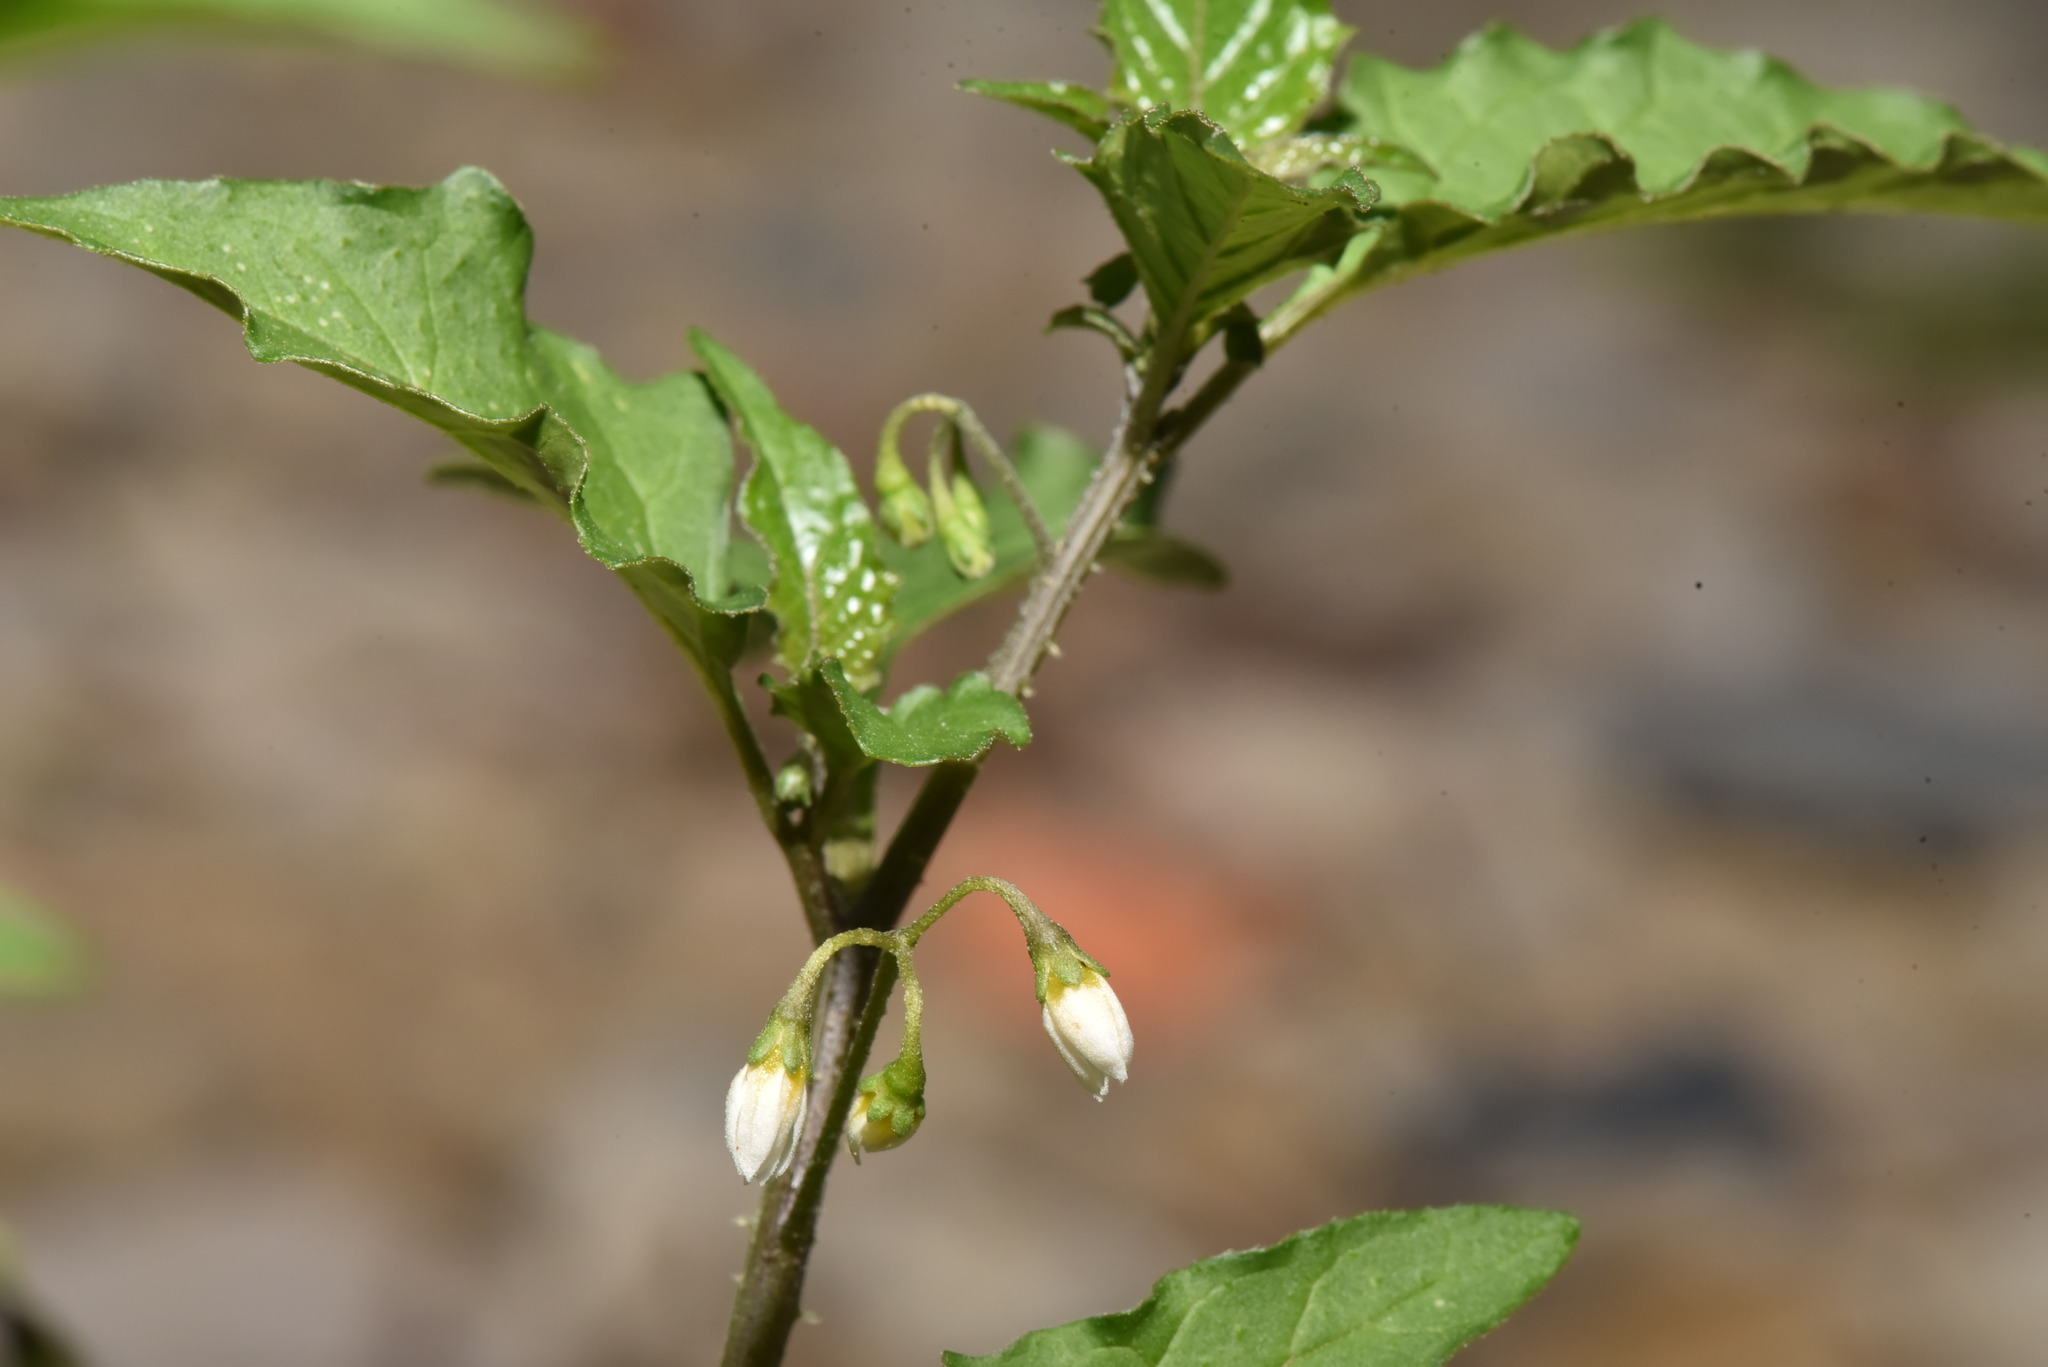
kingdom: Plantae
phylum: Tracheophyta
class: Magnoliopsida
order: Solanales
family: Solanaceae
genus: Solanum
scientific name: Solanum nigrum
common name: Black nightshade
